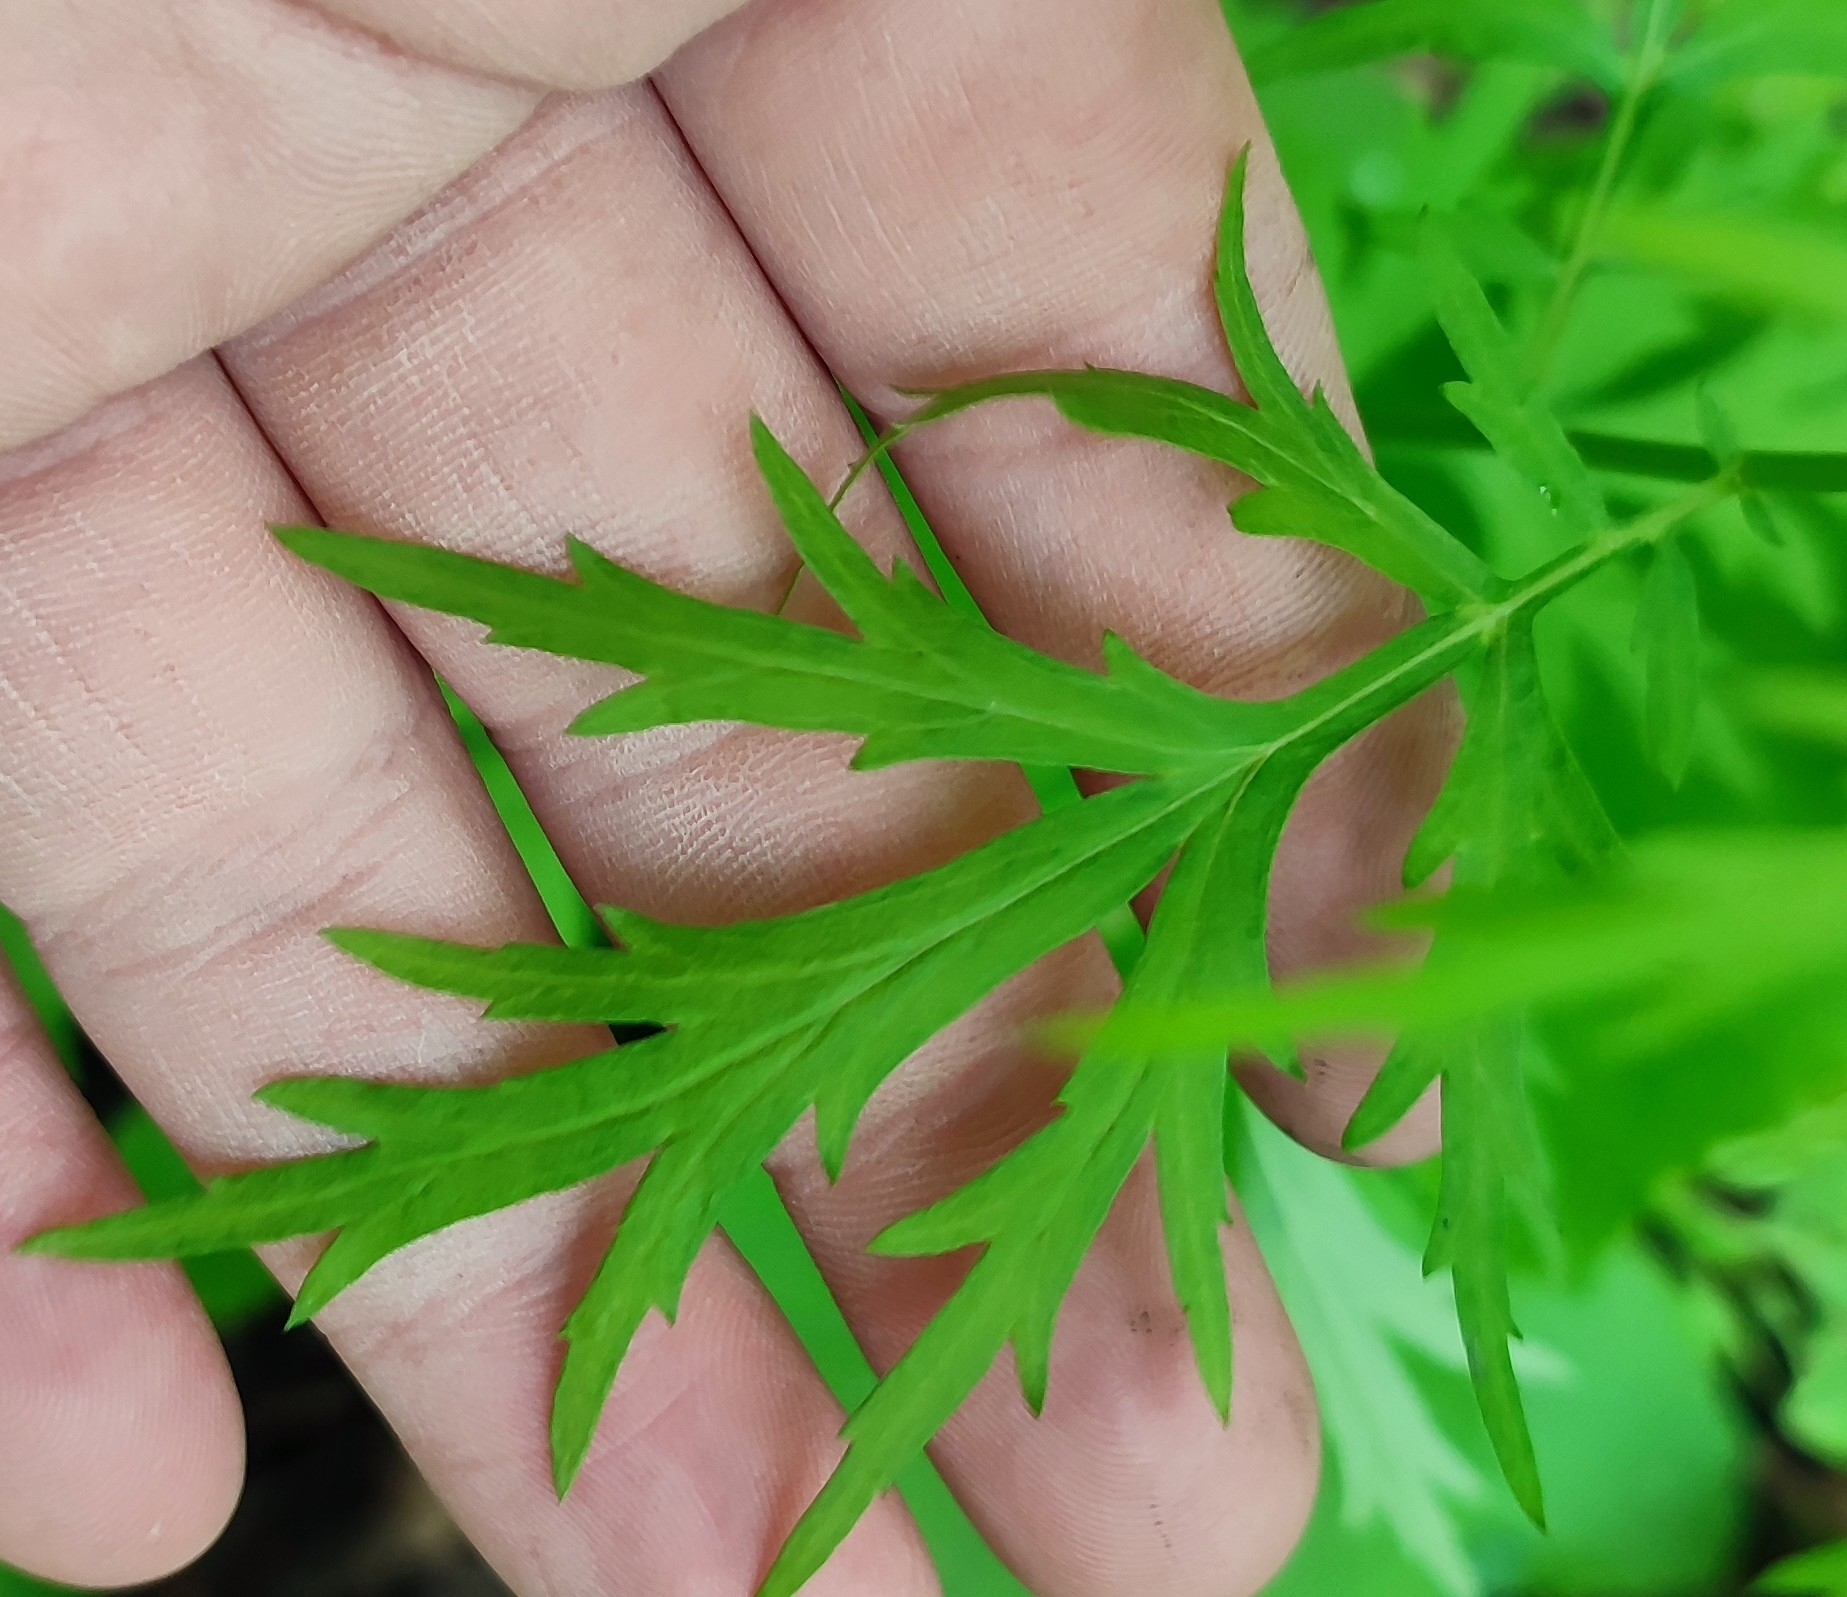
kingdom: Plantae
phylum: Tracheophyta
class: Magnoliopsida
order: Asterales
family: Asteraceae
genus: Artemisia
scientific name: Artemisia vulgaris
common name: Mugwort
